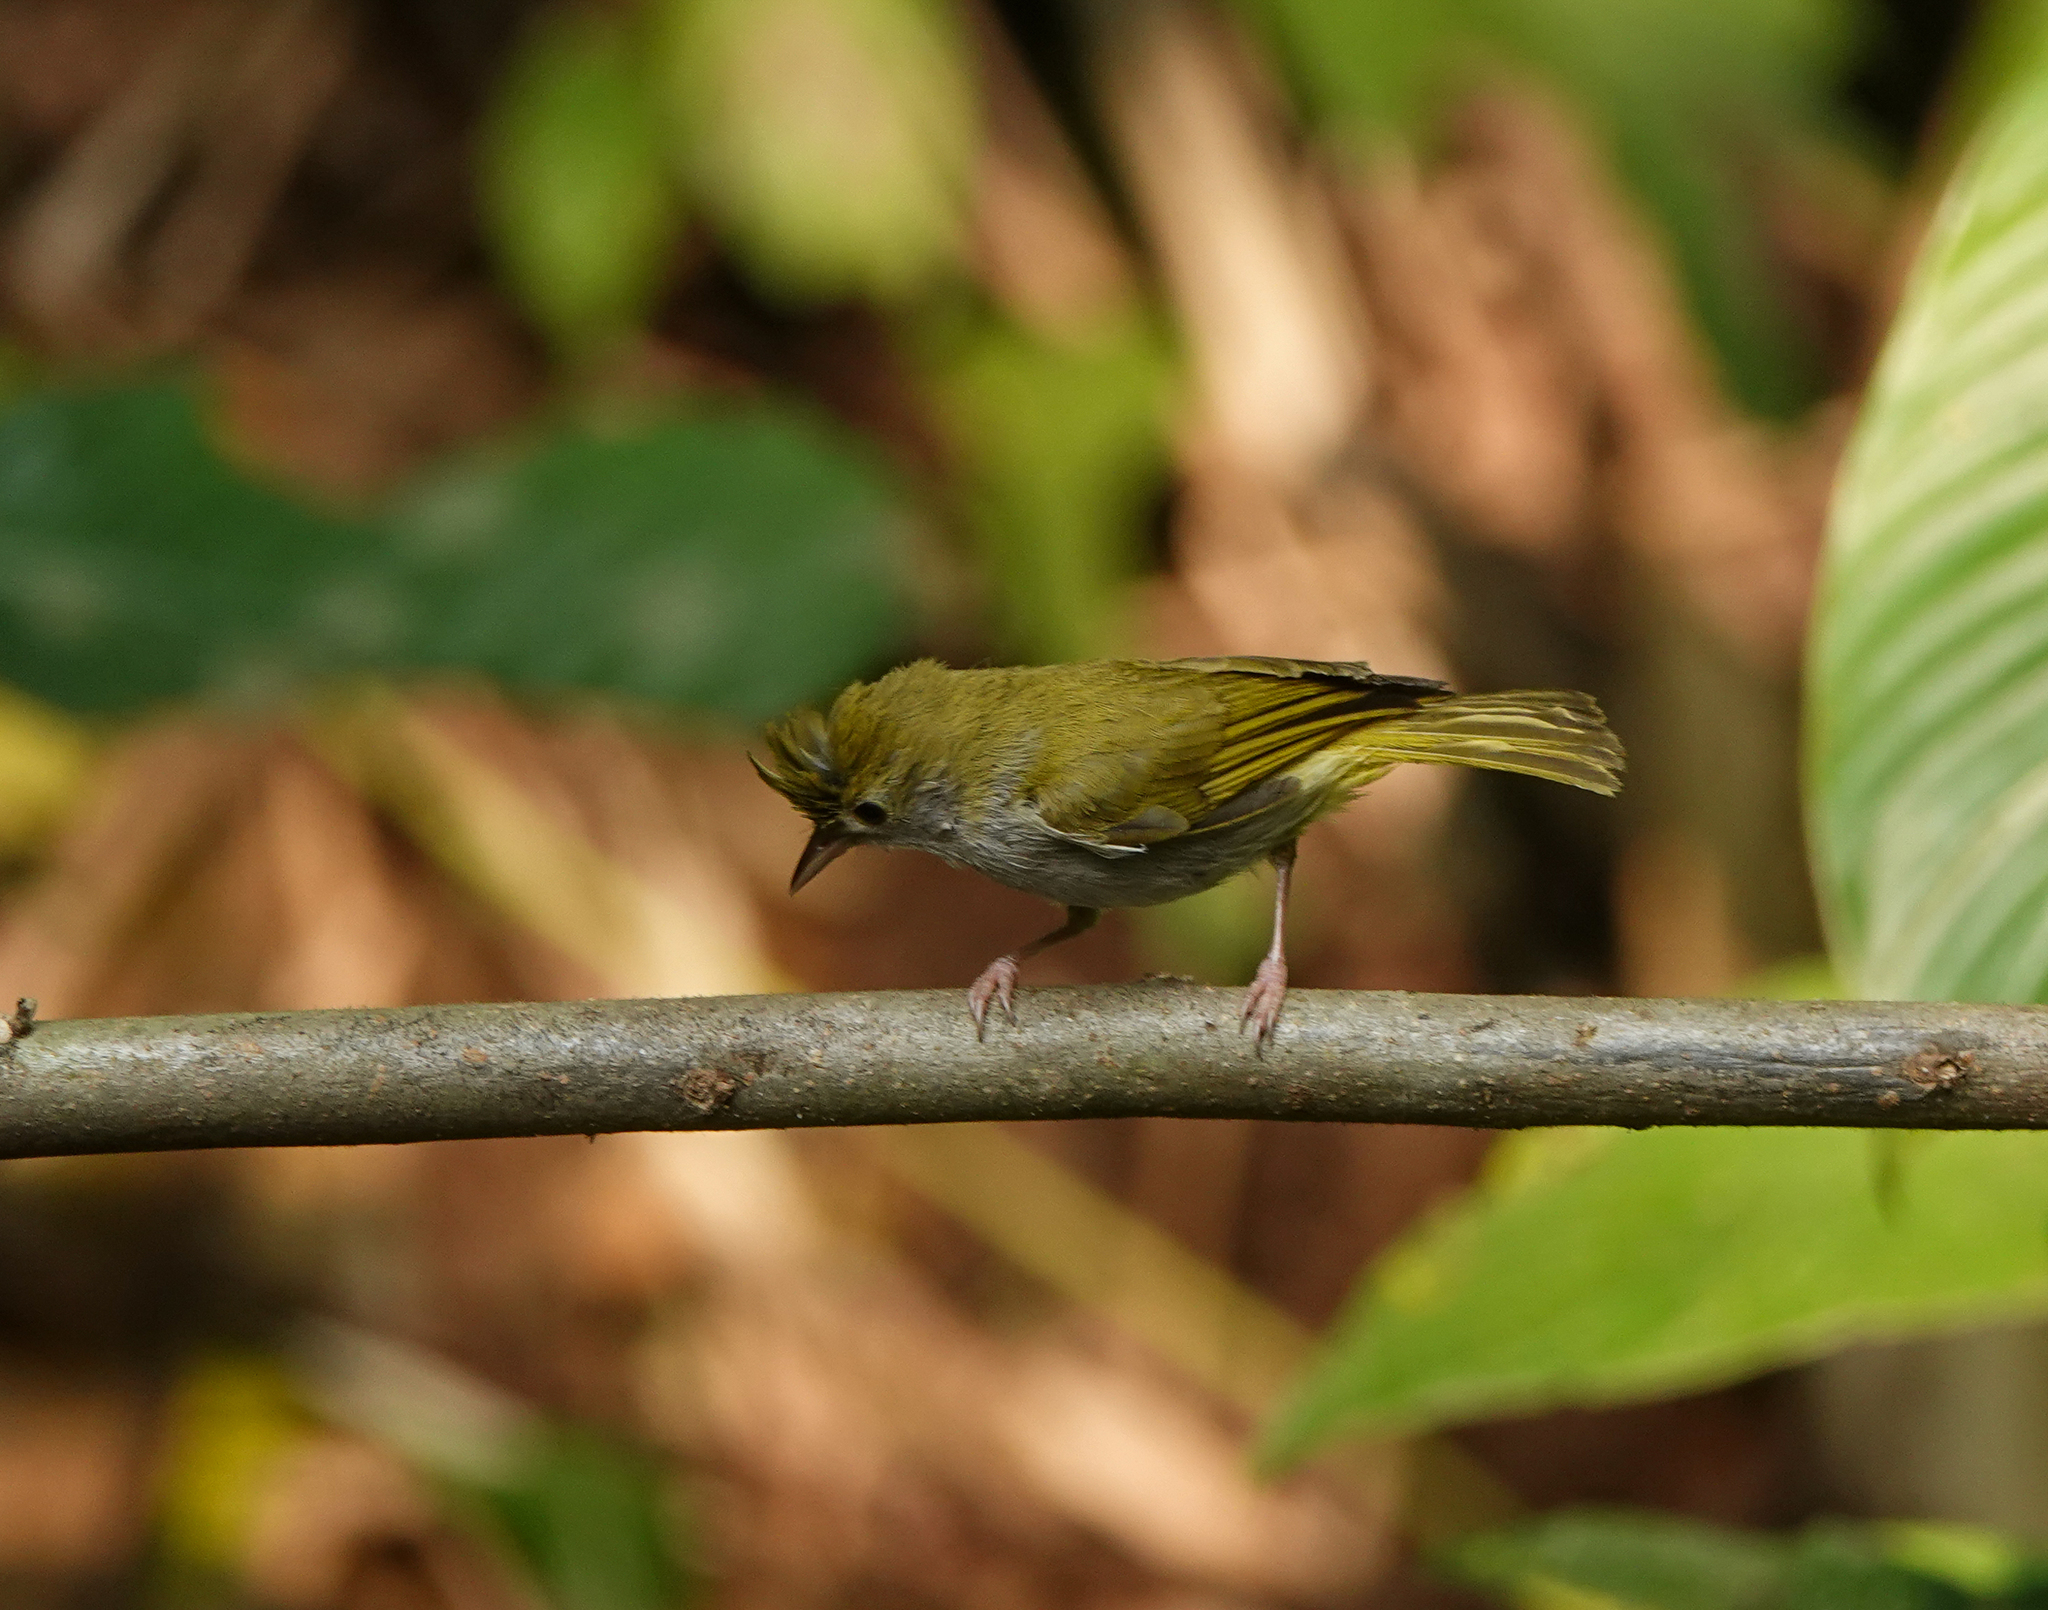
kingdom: Animalia
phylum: Chordata
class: Aves
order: Passeriformes
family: Vireonidae
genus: Erpornis
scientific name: Erpornis zantholeuca
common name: White-bellied erpornis
